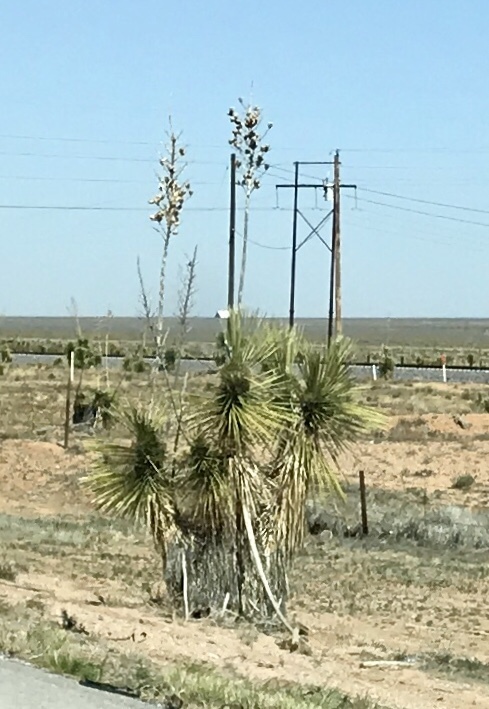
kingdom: Plantae
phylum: Tracheophyta
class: Liliopsida
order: Asparagales
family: Asparagaceae
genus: Yucca
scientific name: Yucca elata
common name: Palmella
